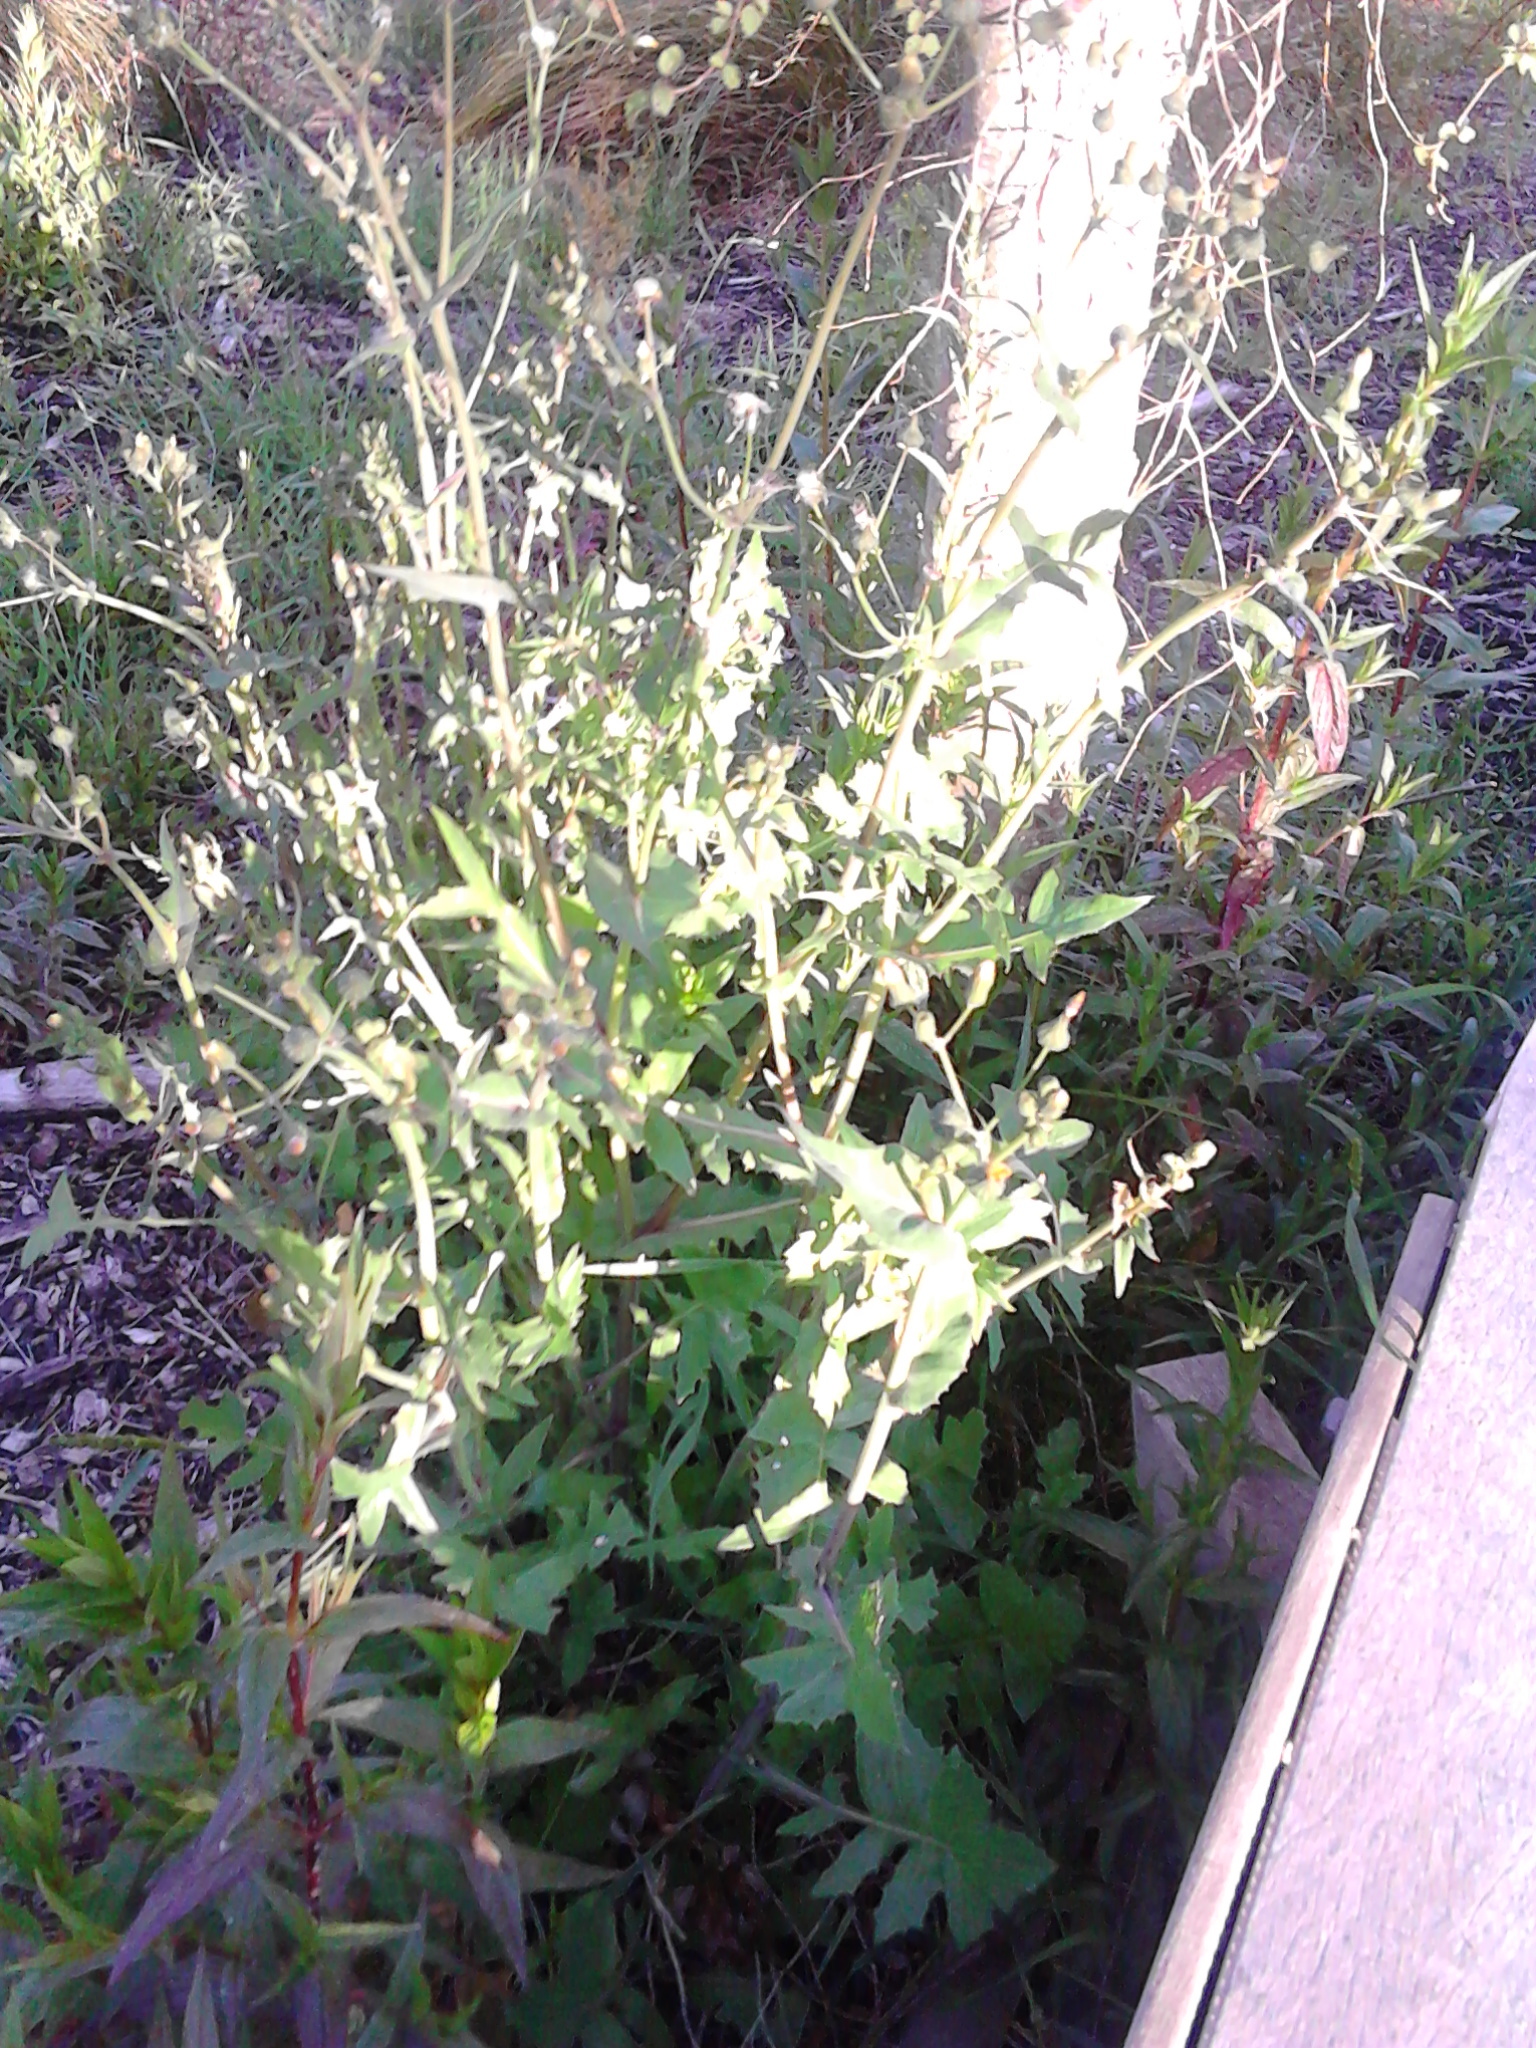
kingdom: Plantae
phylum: Tracheophyta
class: Magnoliopsida
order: Asterales
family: Asteraceae
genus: Sonchus
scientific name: Sonchus oleraceus
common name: Common sowthistle
